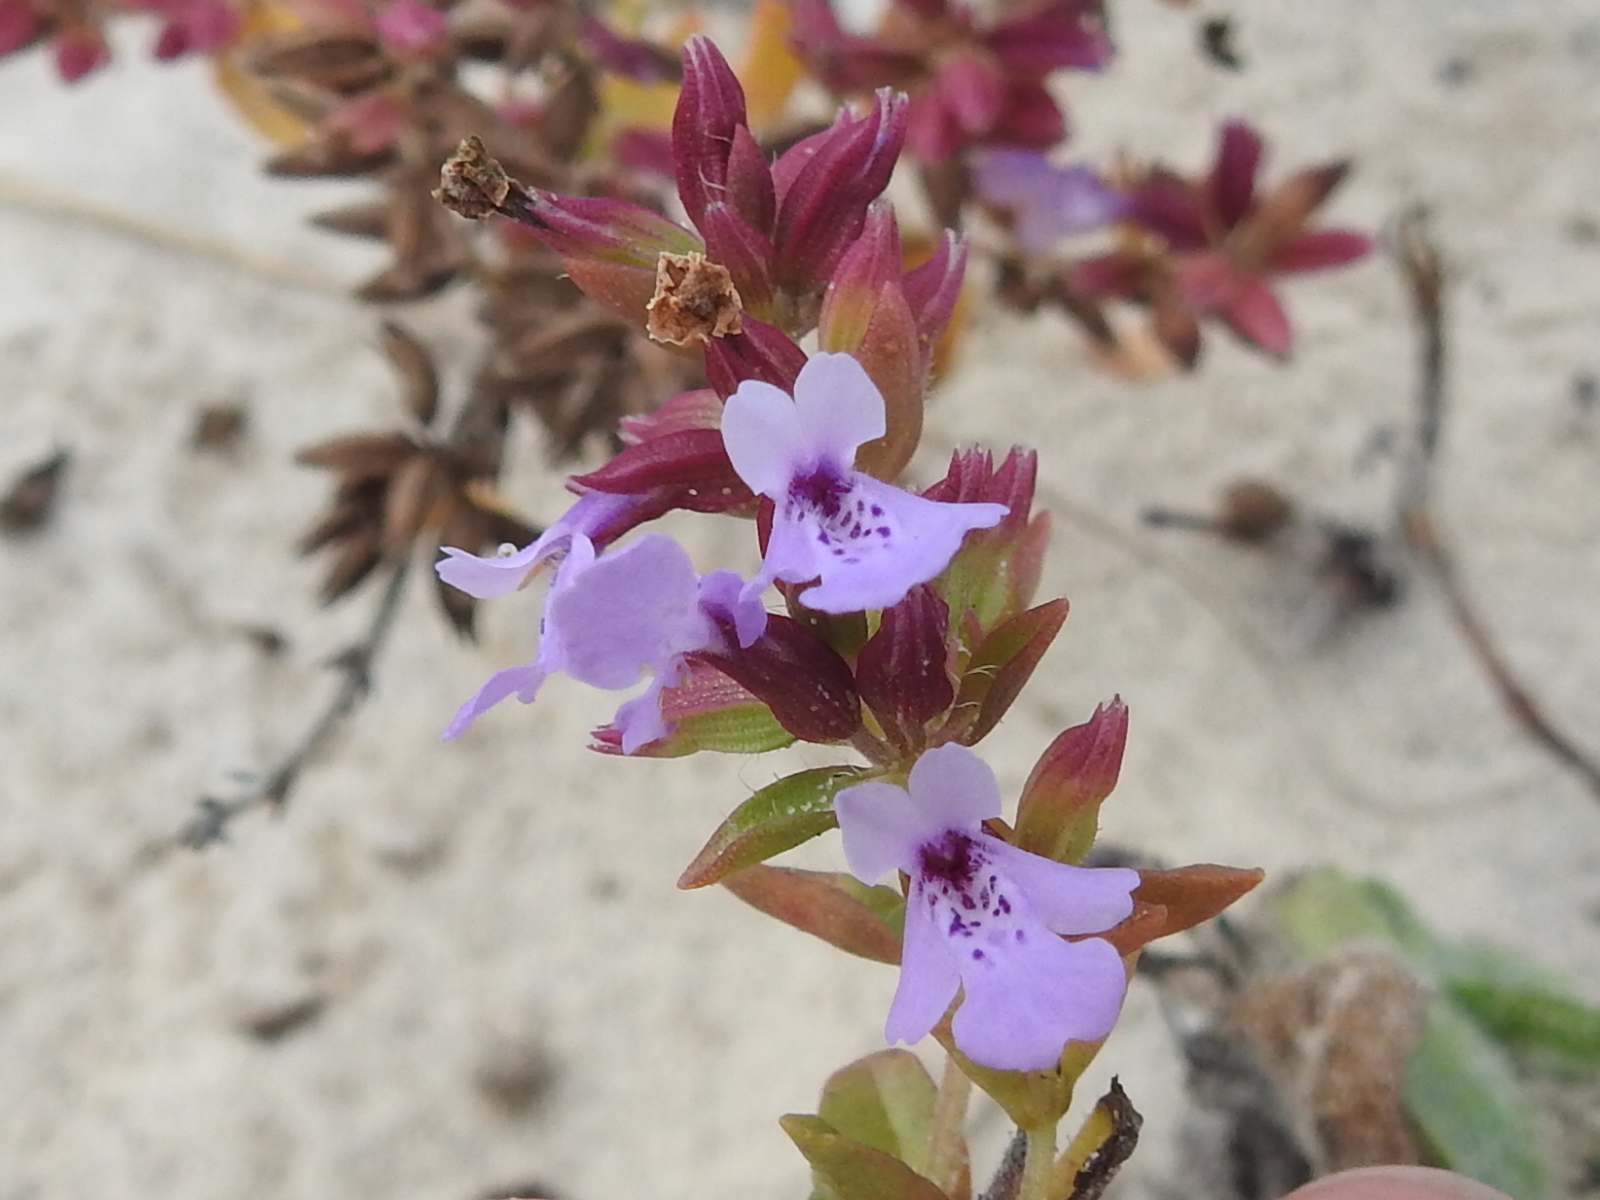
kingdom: Plantae
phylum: Tracheophyta
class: Magnoliopsida
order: Lamiales
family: Lamiaceae
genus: Rhododon
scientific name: Rhododon ciliatus
